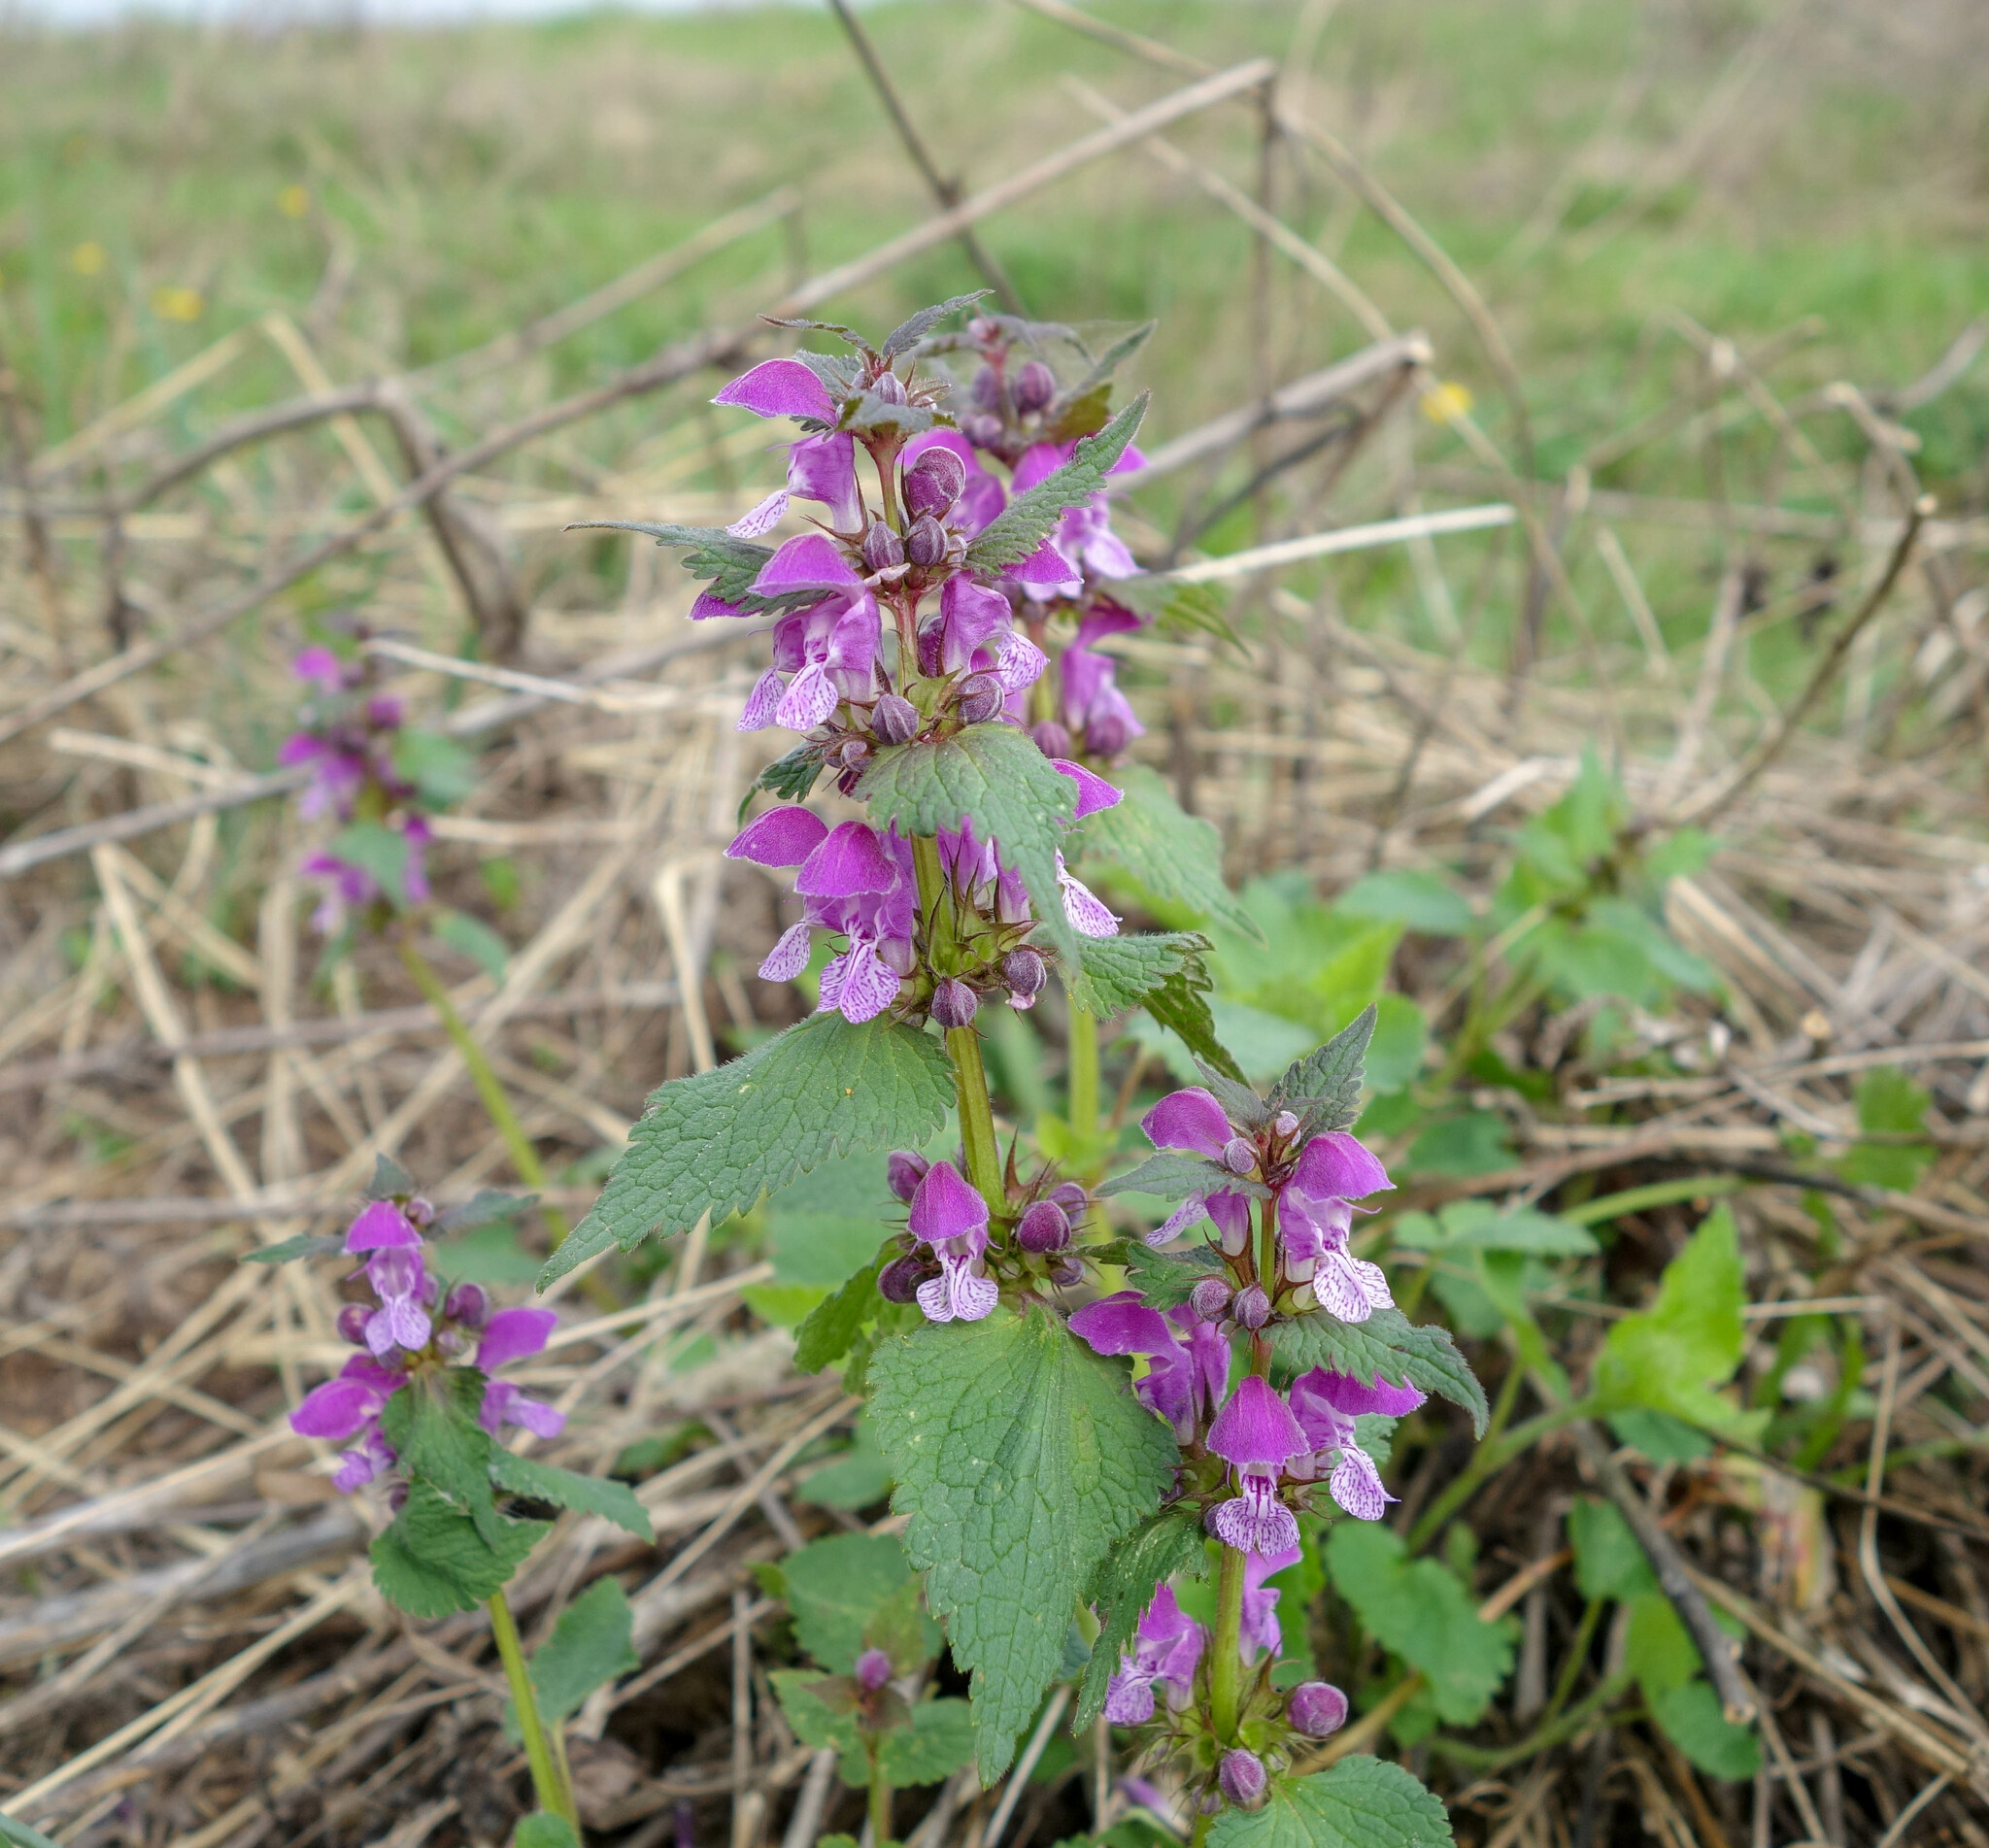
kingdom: Plantae
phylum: Tracheophyta
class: Magnoliopsida
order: Lamiales
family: Lamiaceae
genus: Lamium
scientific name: Lamium maculatum
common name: Spotted dead-nettle
